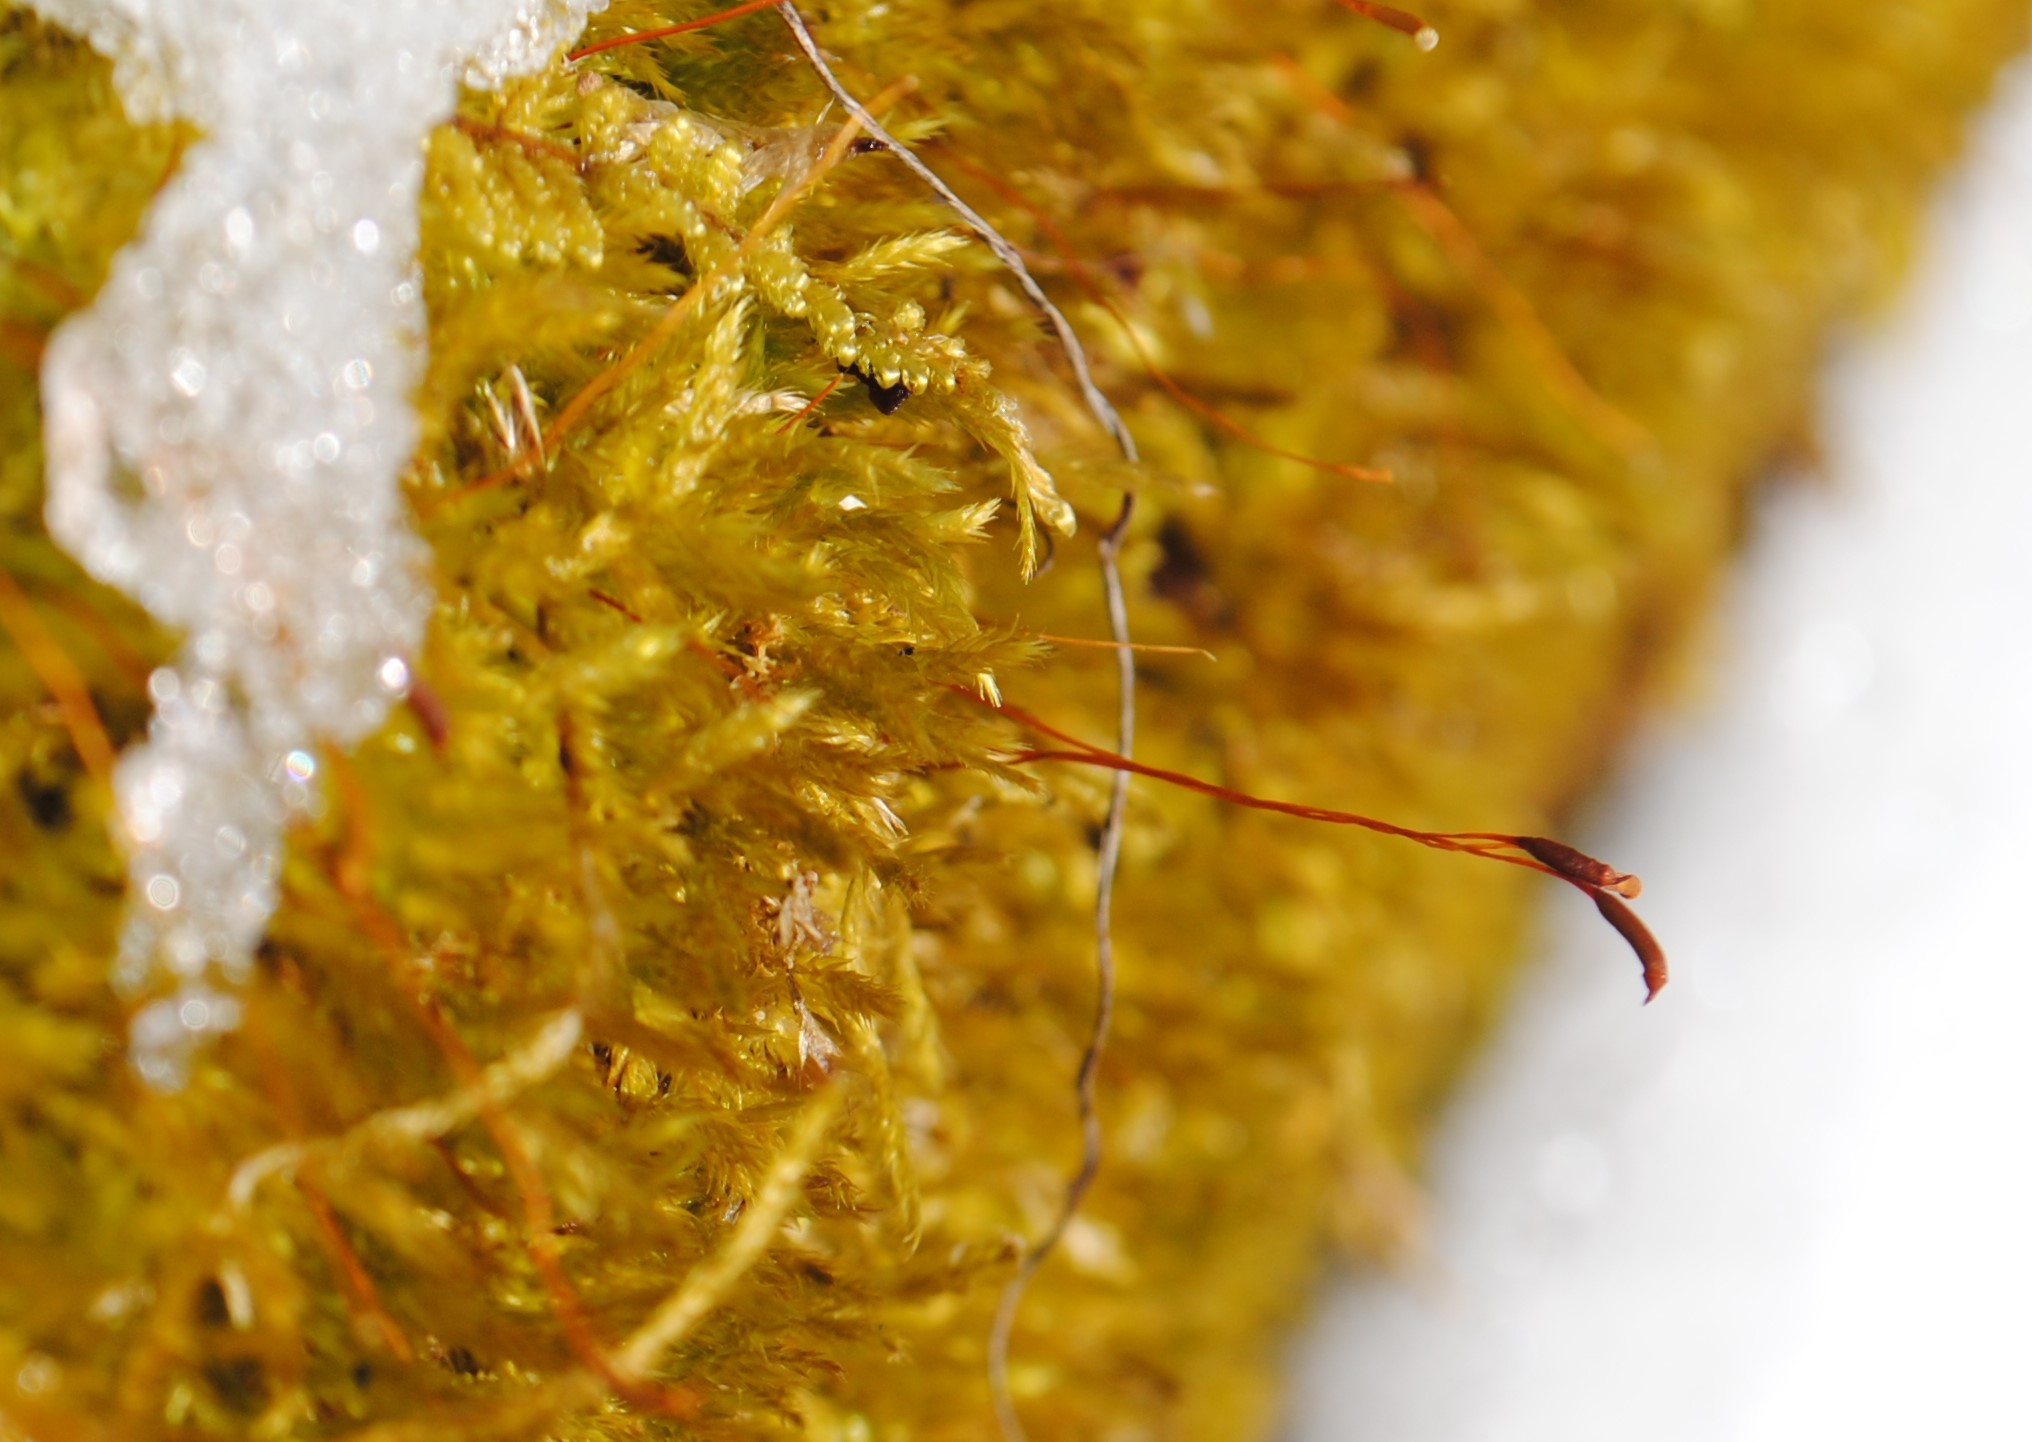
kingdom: Plantae
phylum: Bryophyta
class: Bryopsida
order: Hypnales
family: Callicladiaceae
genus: Callicladium
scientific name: Callicladium haldanianum
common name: Beautiful branch moss
